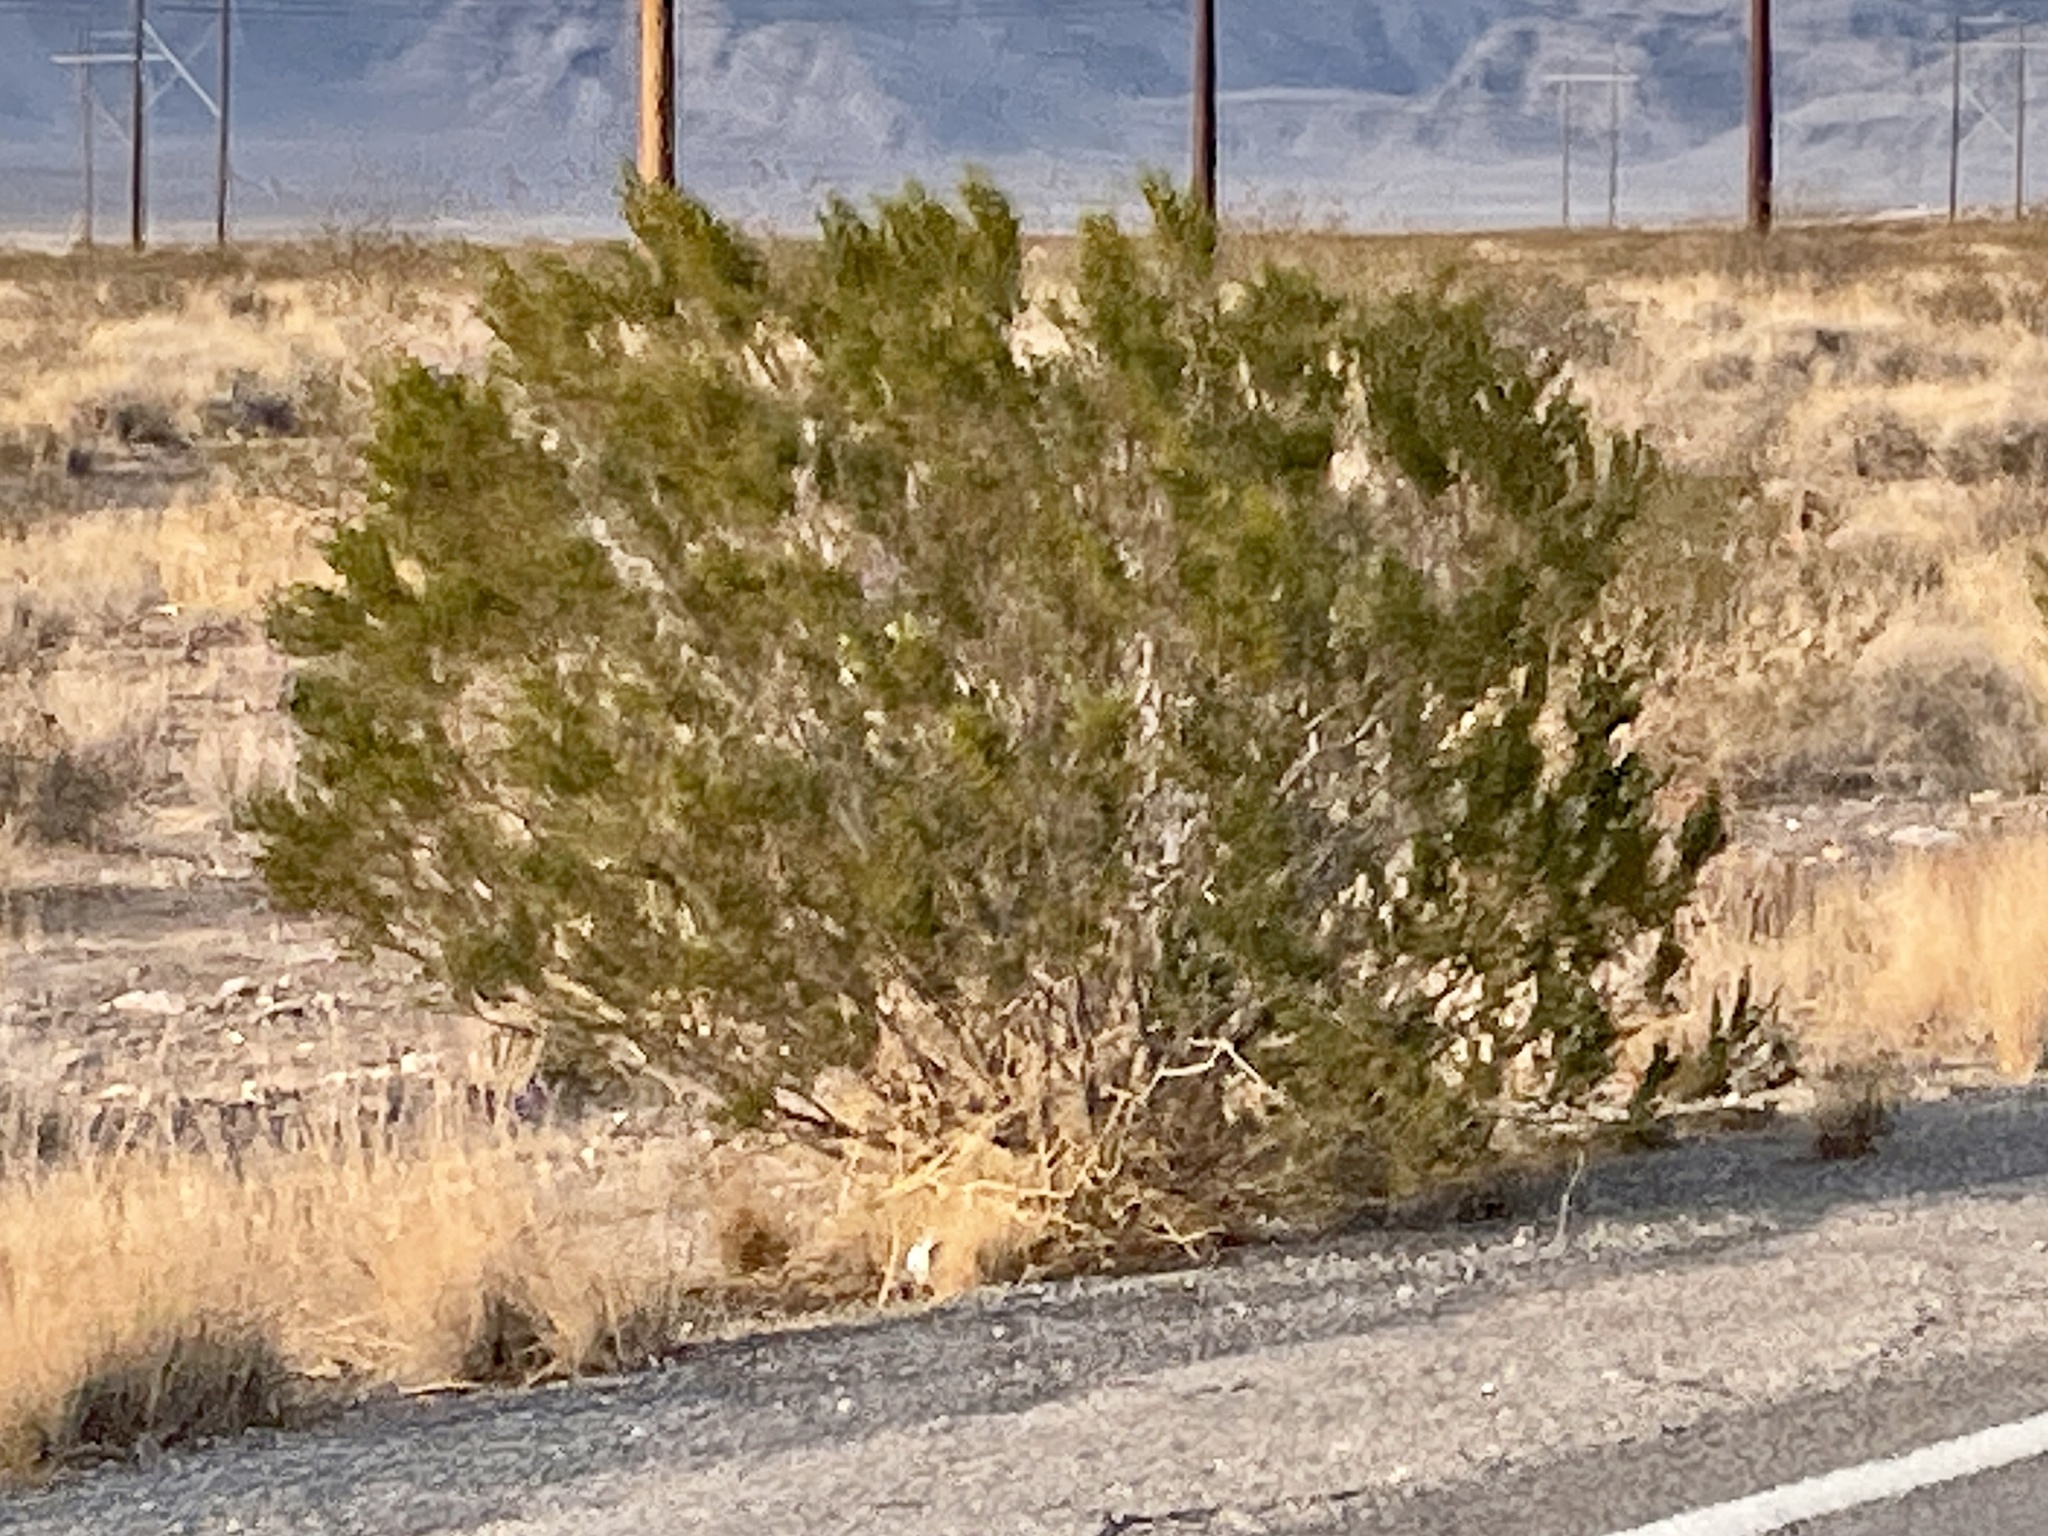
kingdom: Plantae
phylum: Tracheophyta
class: Magnoliopsida
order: Zygophyllales
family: Zygophyllaceae
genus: Larrea
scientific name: Larrea tridentata
